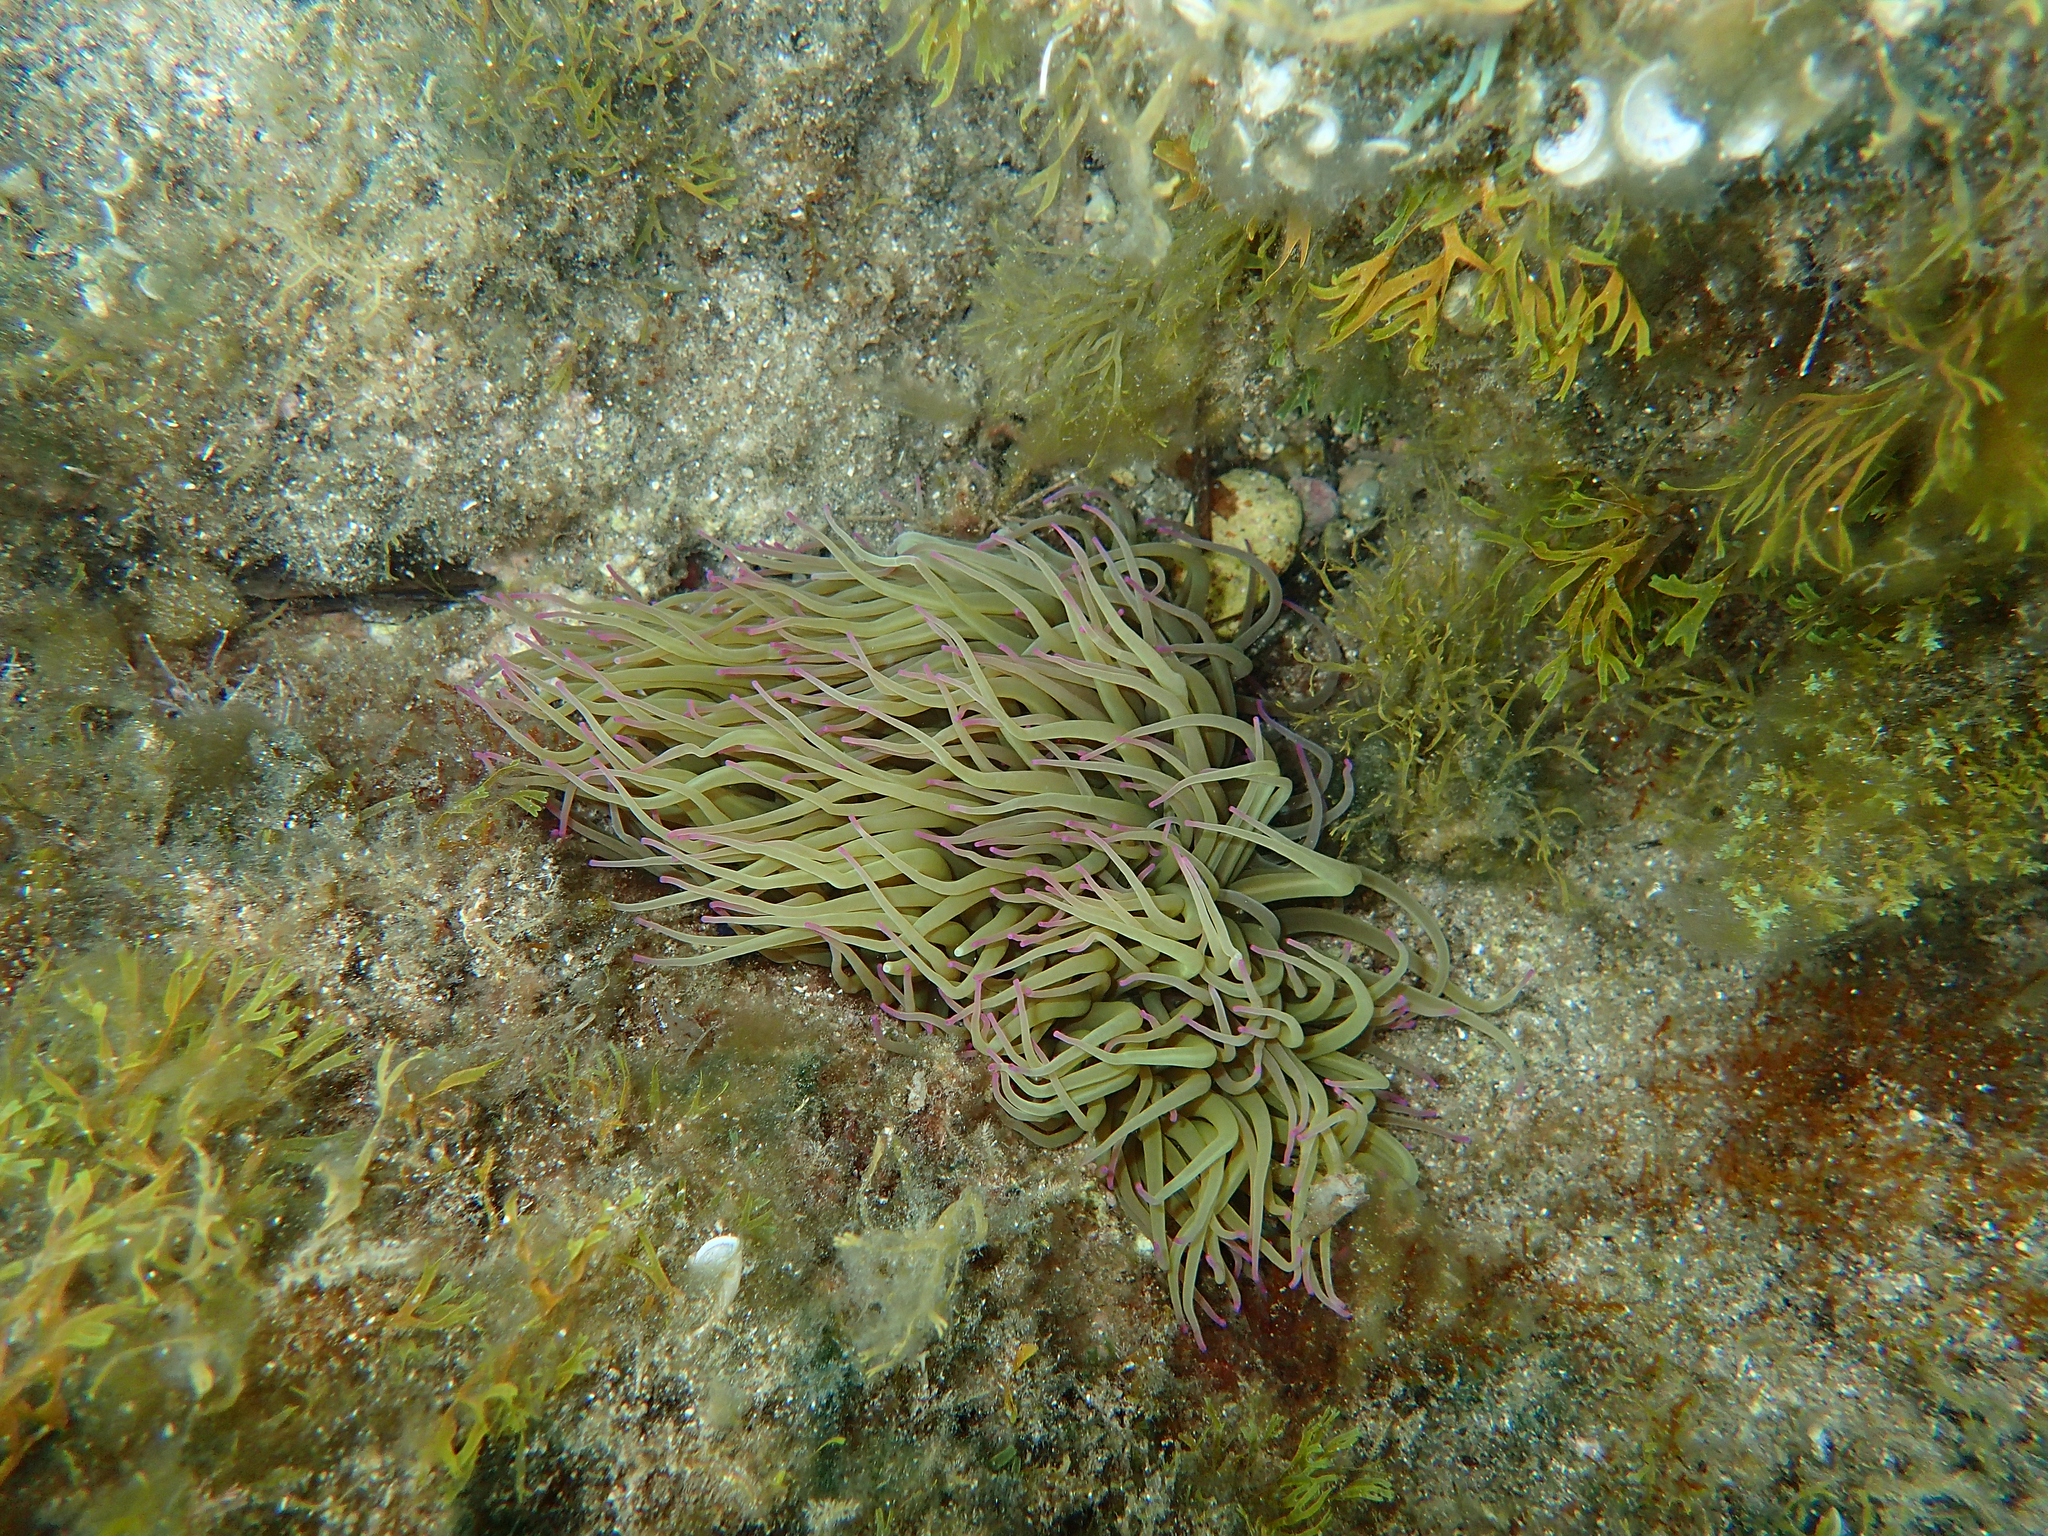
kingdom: Animalia
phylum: Cnidaria
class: Anthozoa
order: Actiniaria
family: Actiniidae
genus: Anemonia
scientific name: Anemonia viridis
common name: Snakelocks anemone
